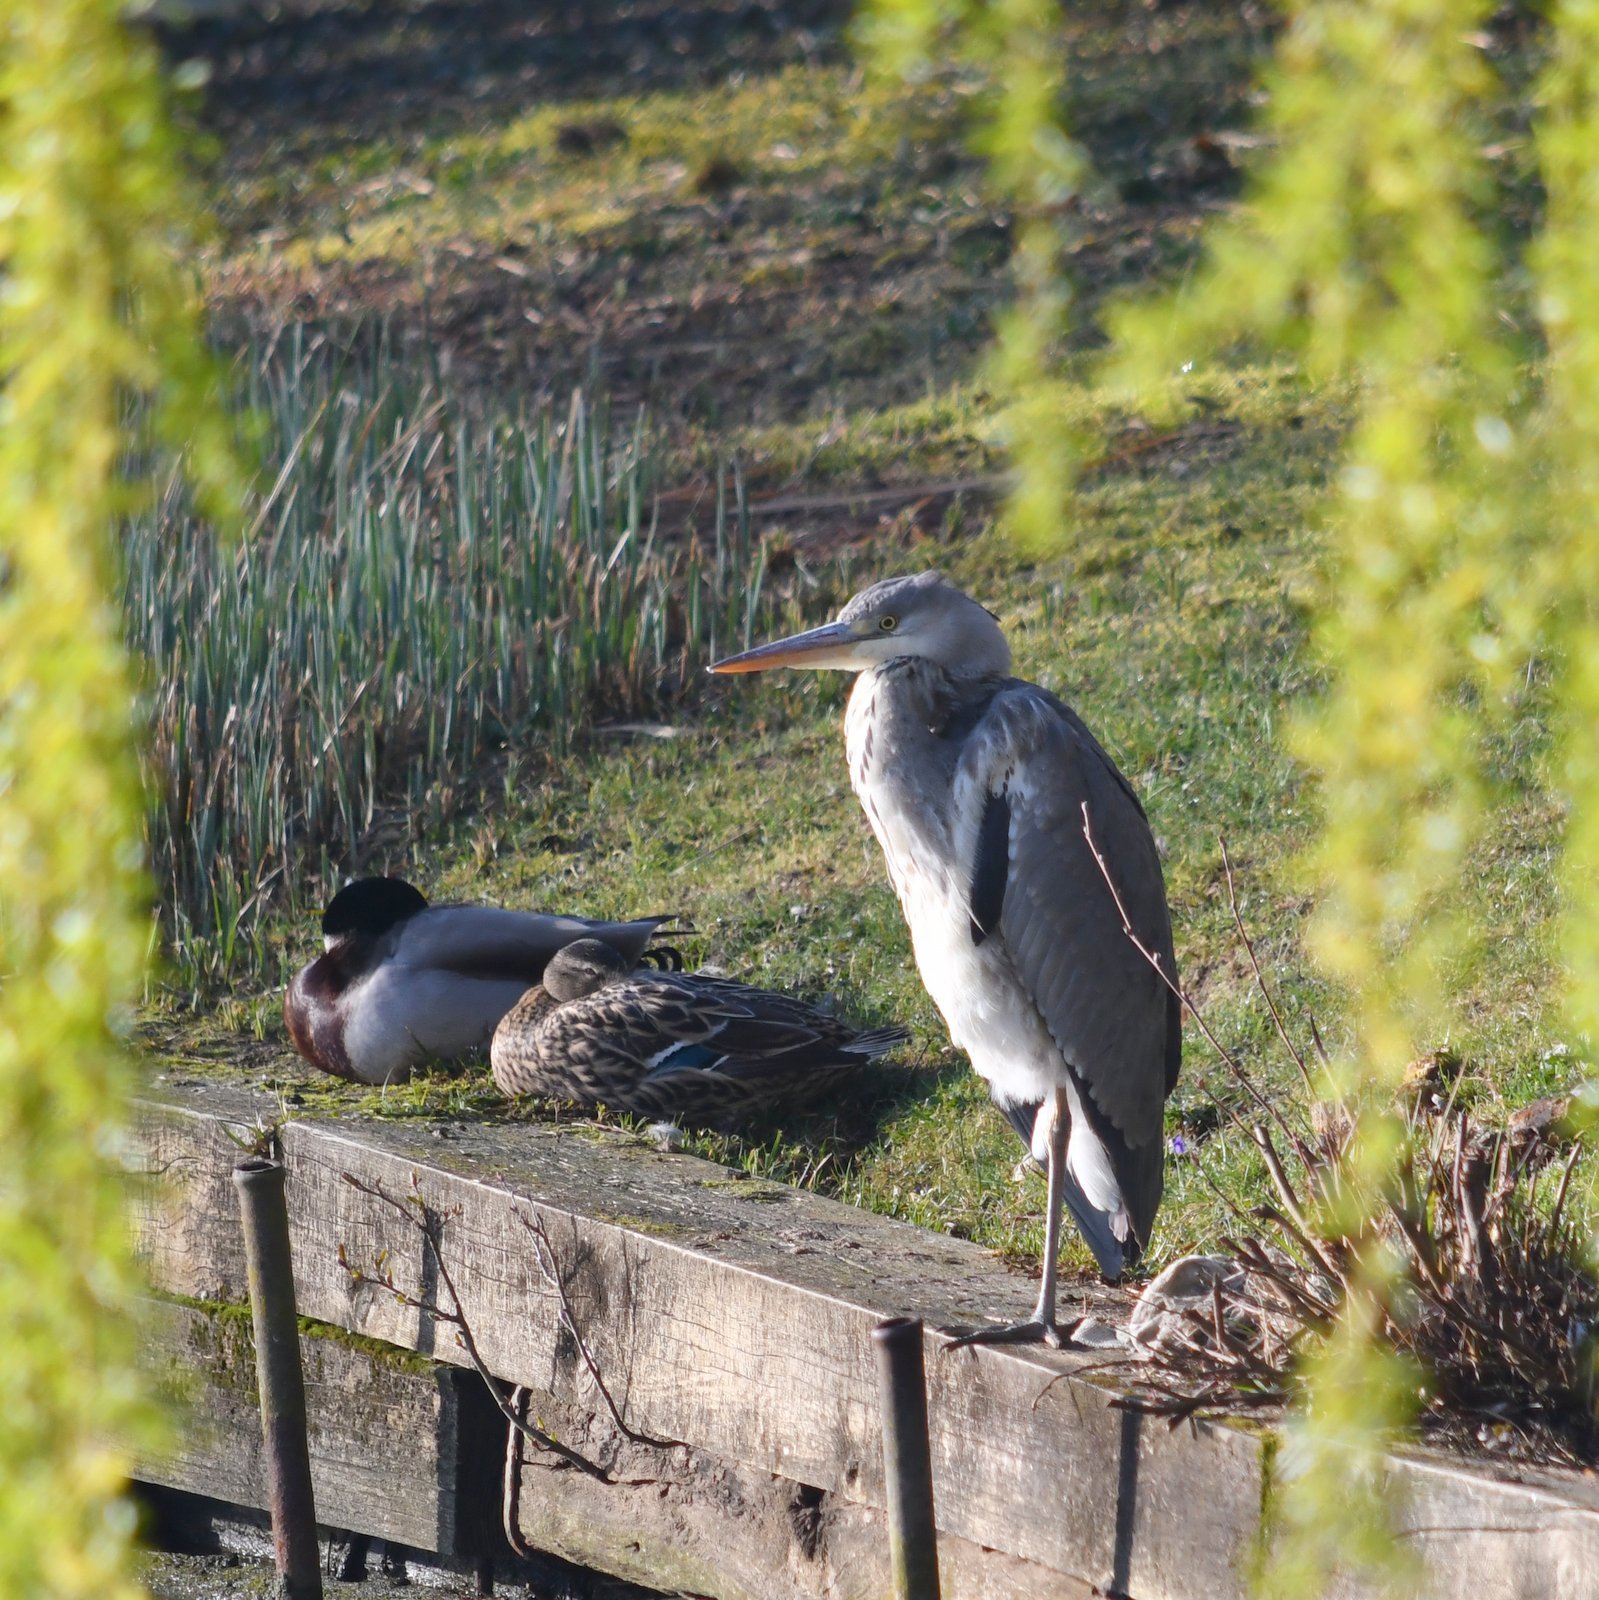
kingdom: Animalia
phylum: Chordata
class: Aves
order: Pelecaniformes
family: Ardeidae
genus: Ardea
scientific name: Ardea cinerea
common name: Grey heron
